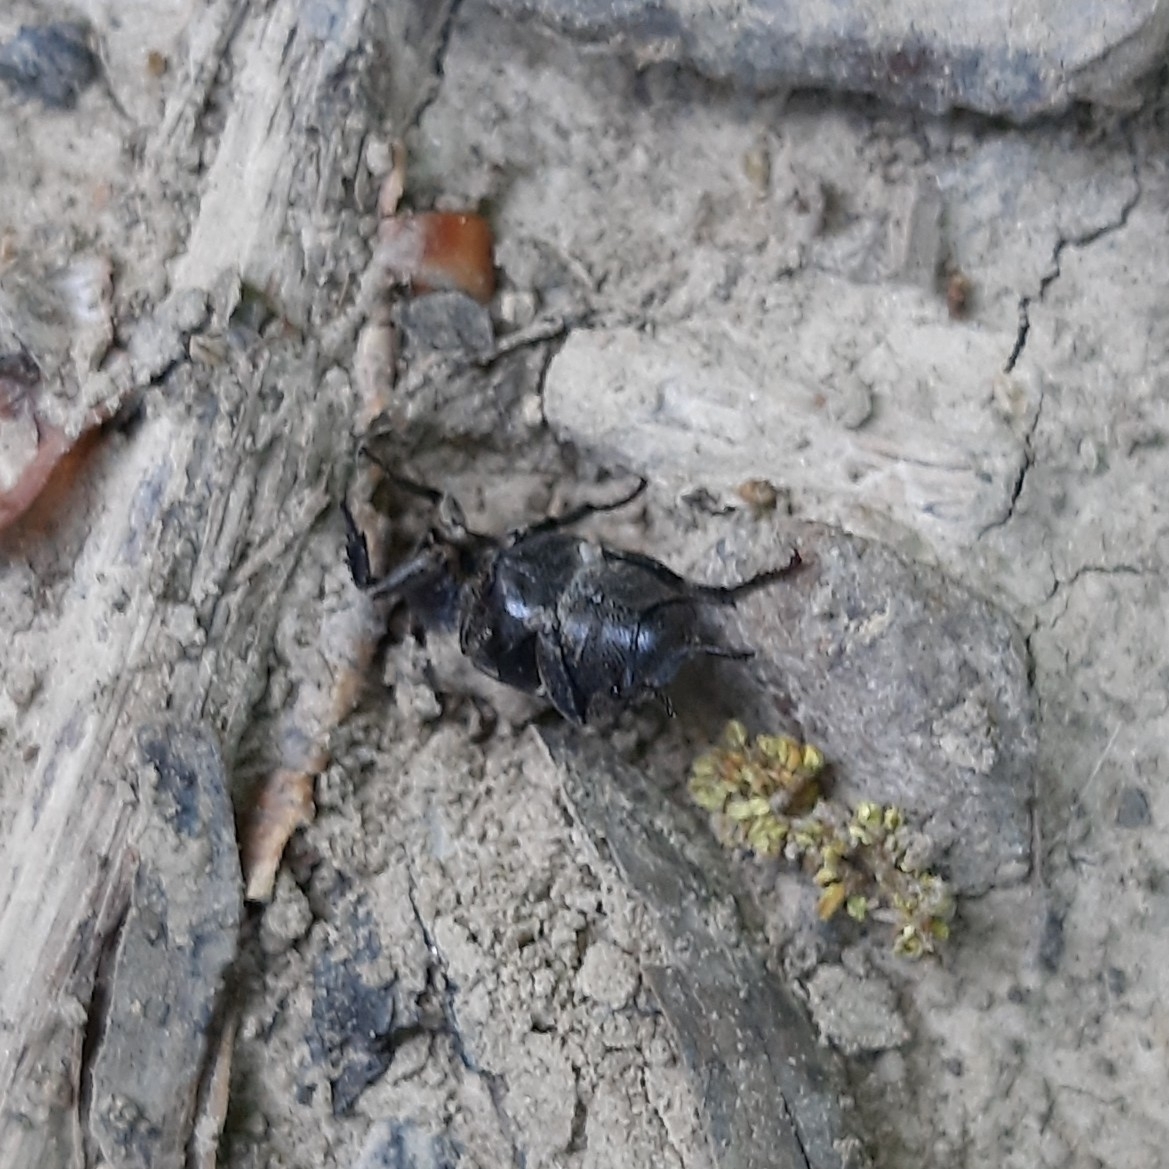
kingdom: Animalia
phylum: Arthropoda
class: Insecta
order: Coleoptera
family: Scarabaeidae
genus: Valgus
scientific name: Valgus hemipterus
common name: Bug flower chafer
